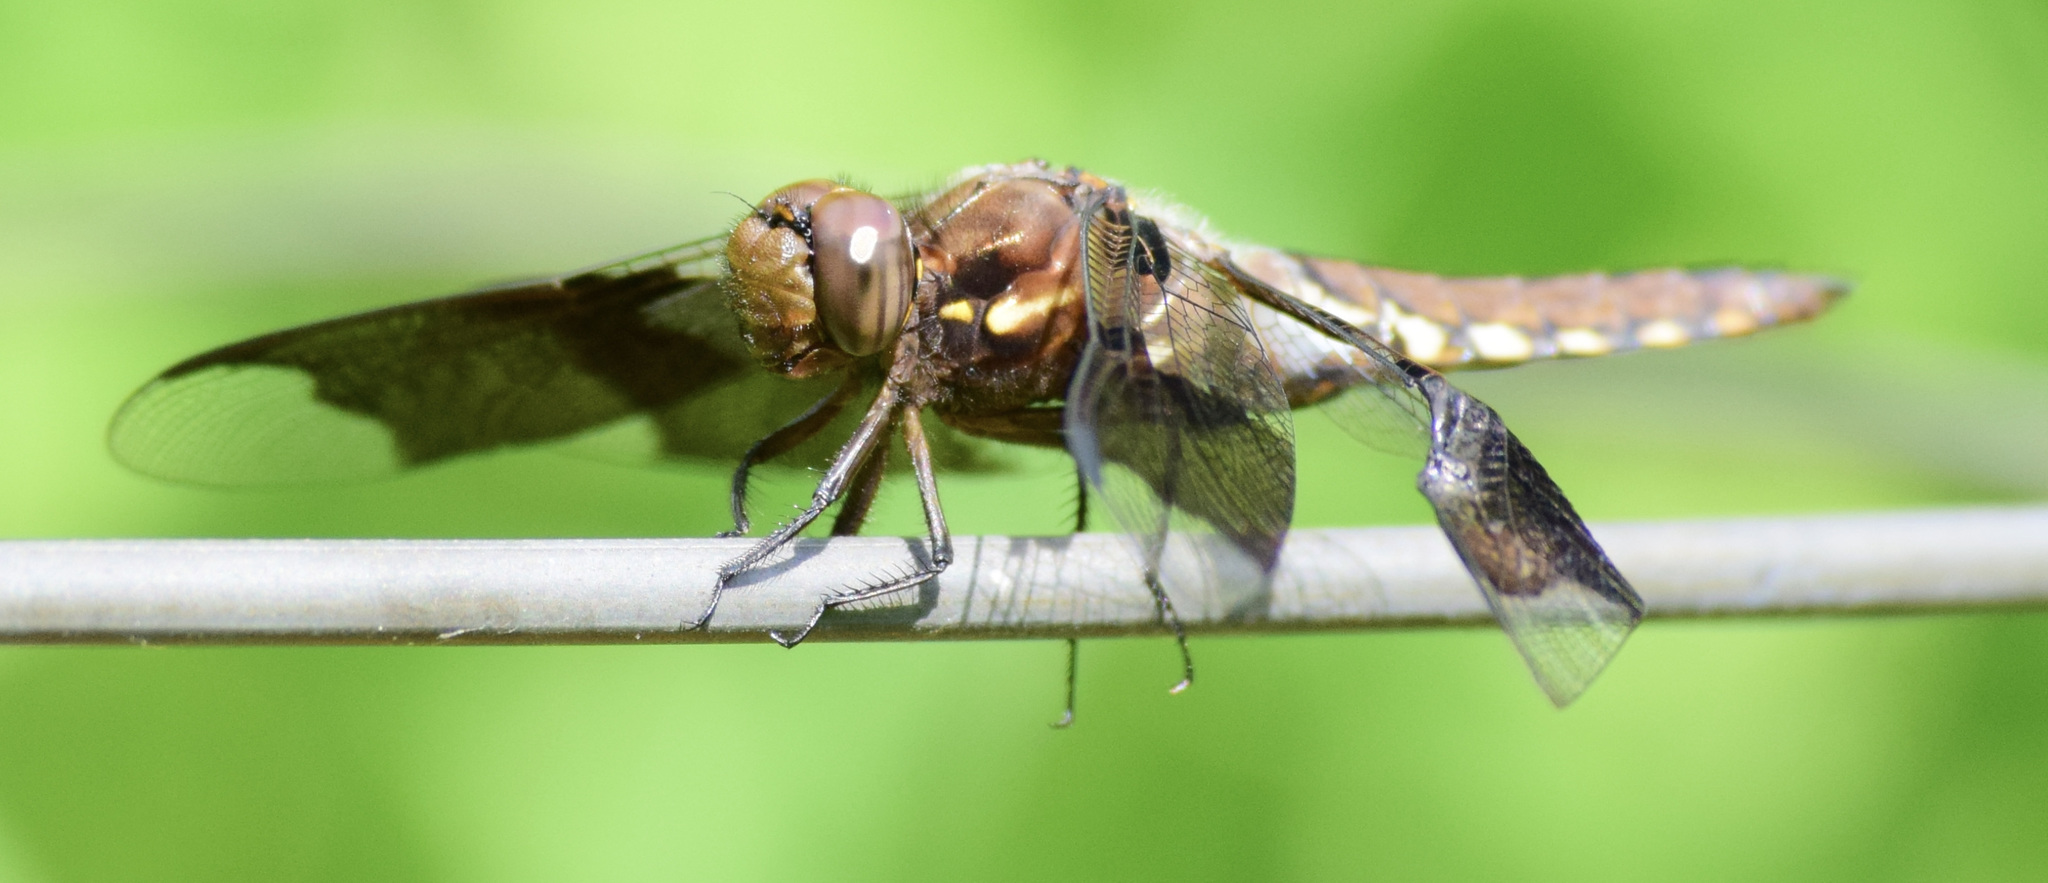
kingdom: Animalia
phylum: Arthropoda
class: Insecta
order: Odonata
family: Libellulidae
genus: Plathemis
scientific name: Plathemis lydia
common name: Common whitetail
